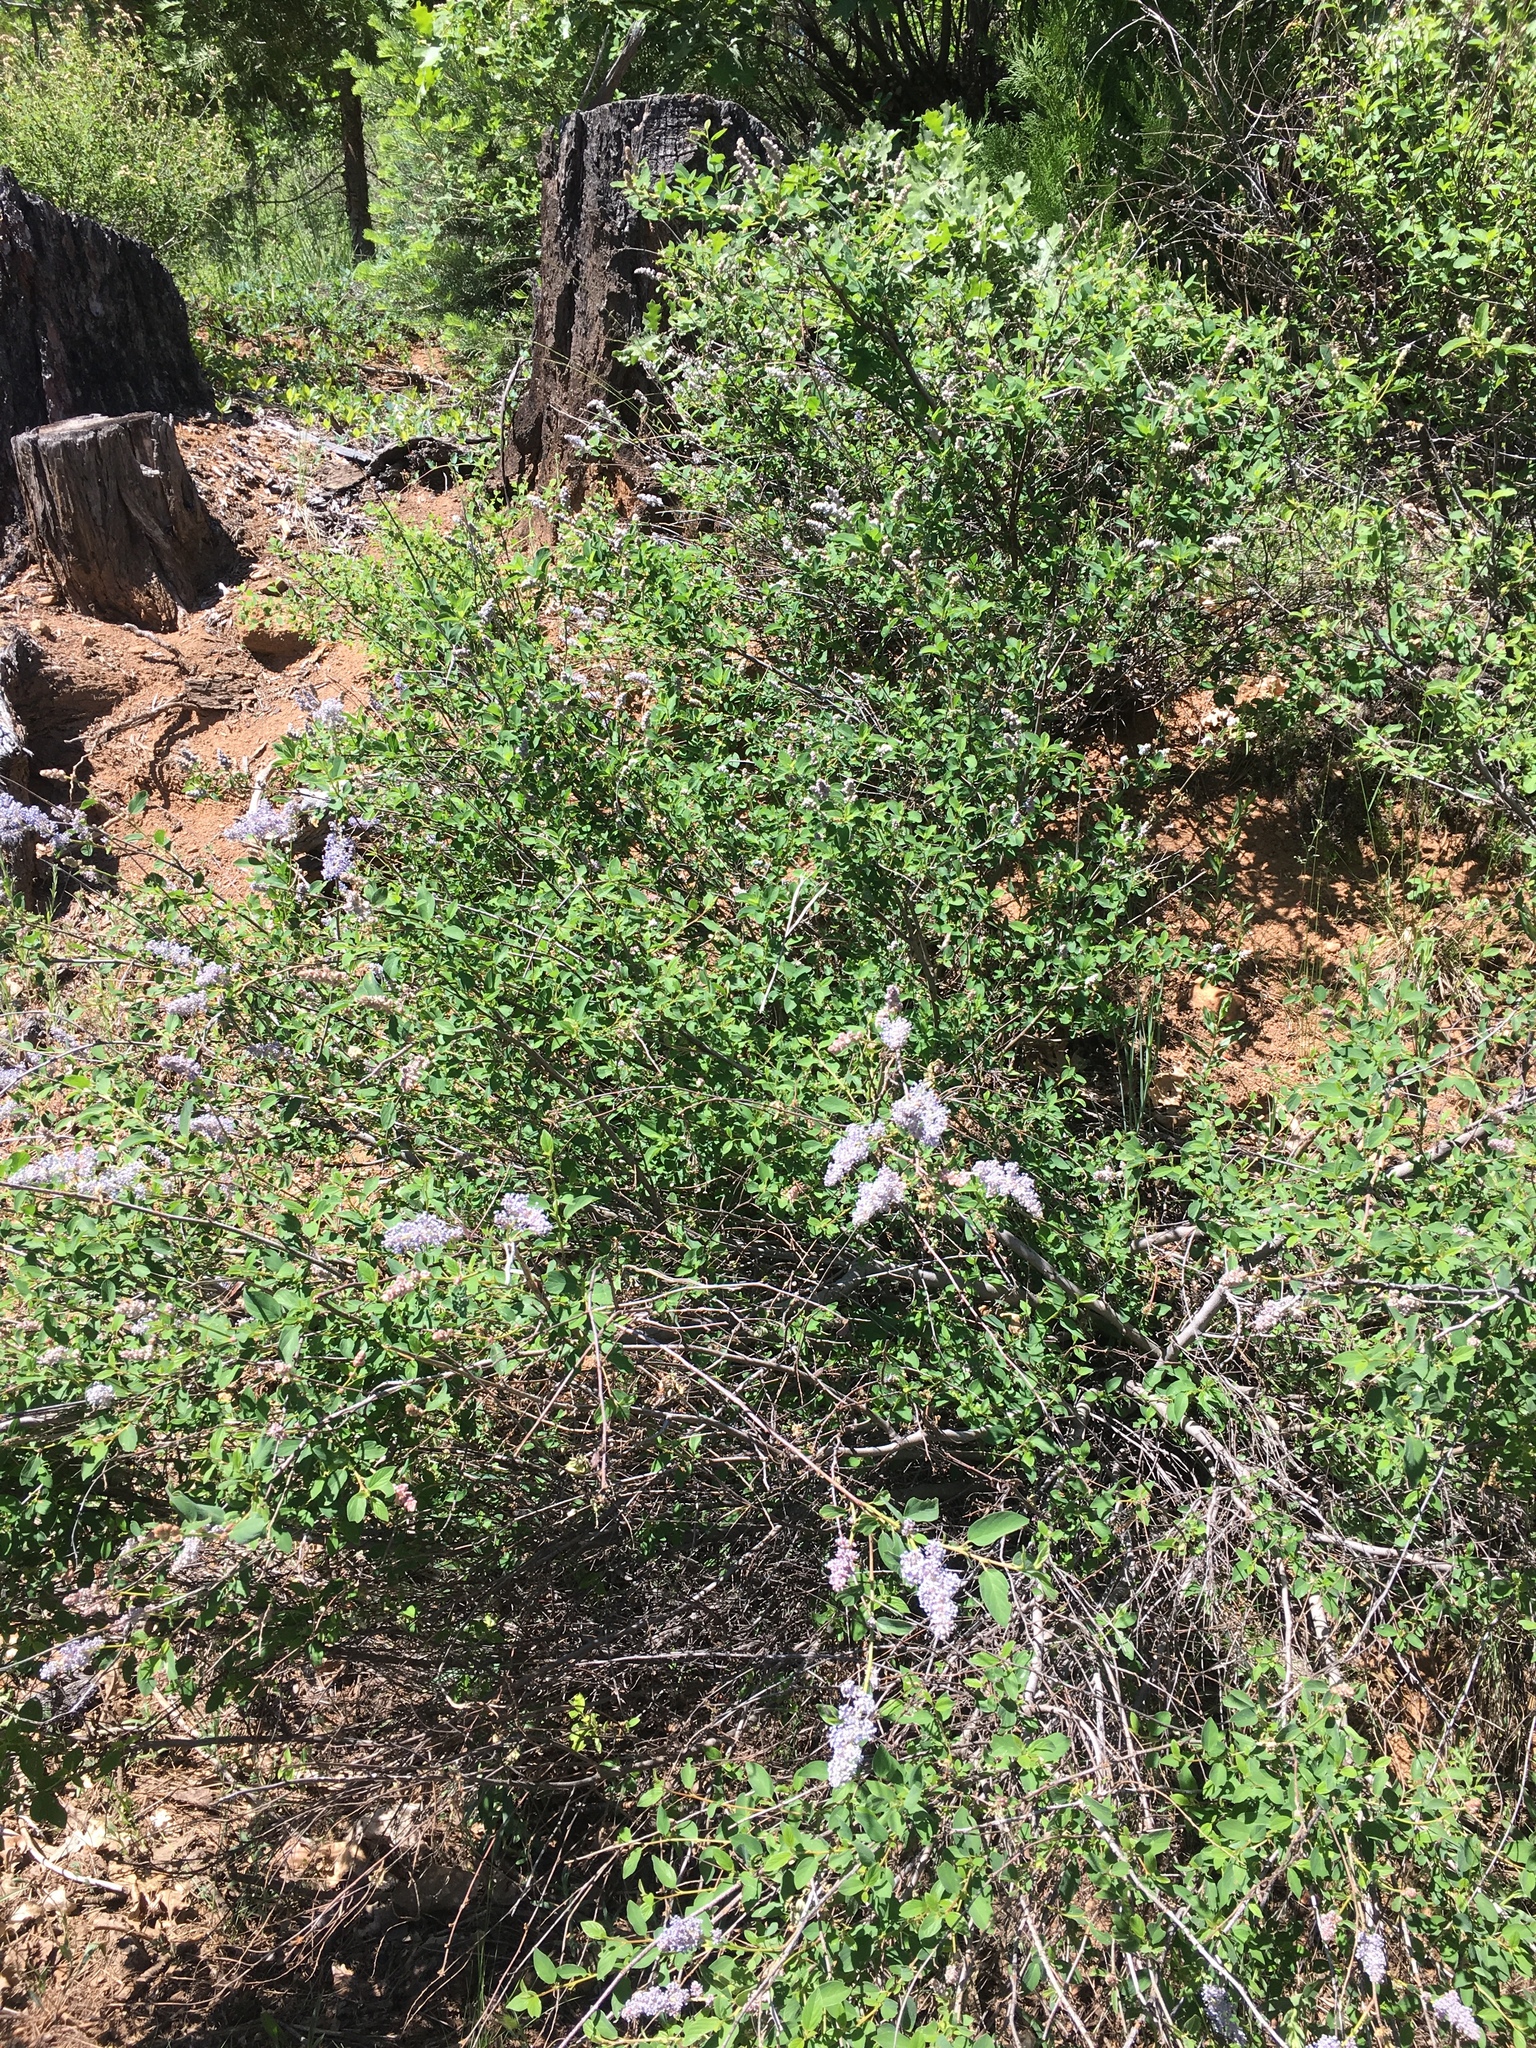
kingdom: Plantae
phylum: Tracheophyta
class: Magnoliopsida
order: Rosales
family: Rhamnaceae
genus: Ceanothus
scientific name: Ceanothus integerrimus
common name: Deerbrush ceanothus
